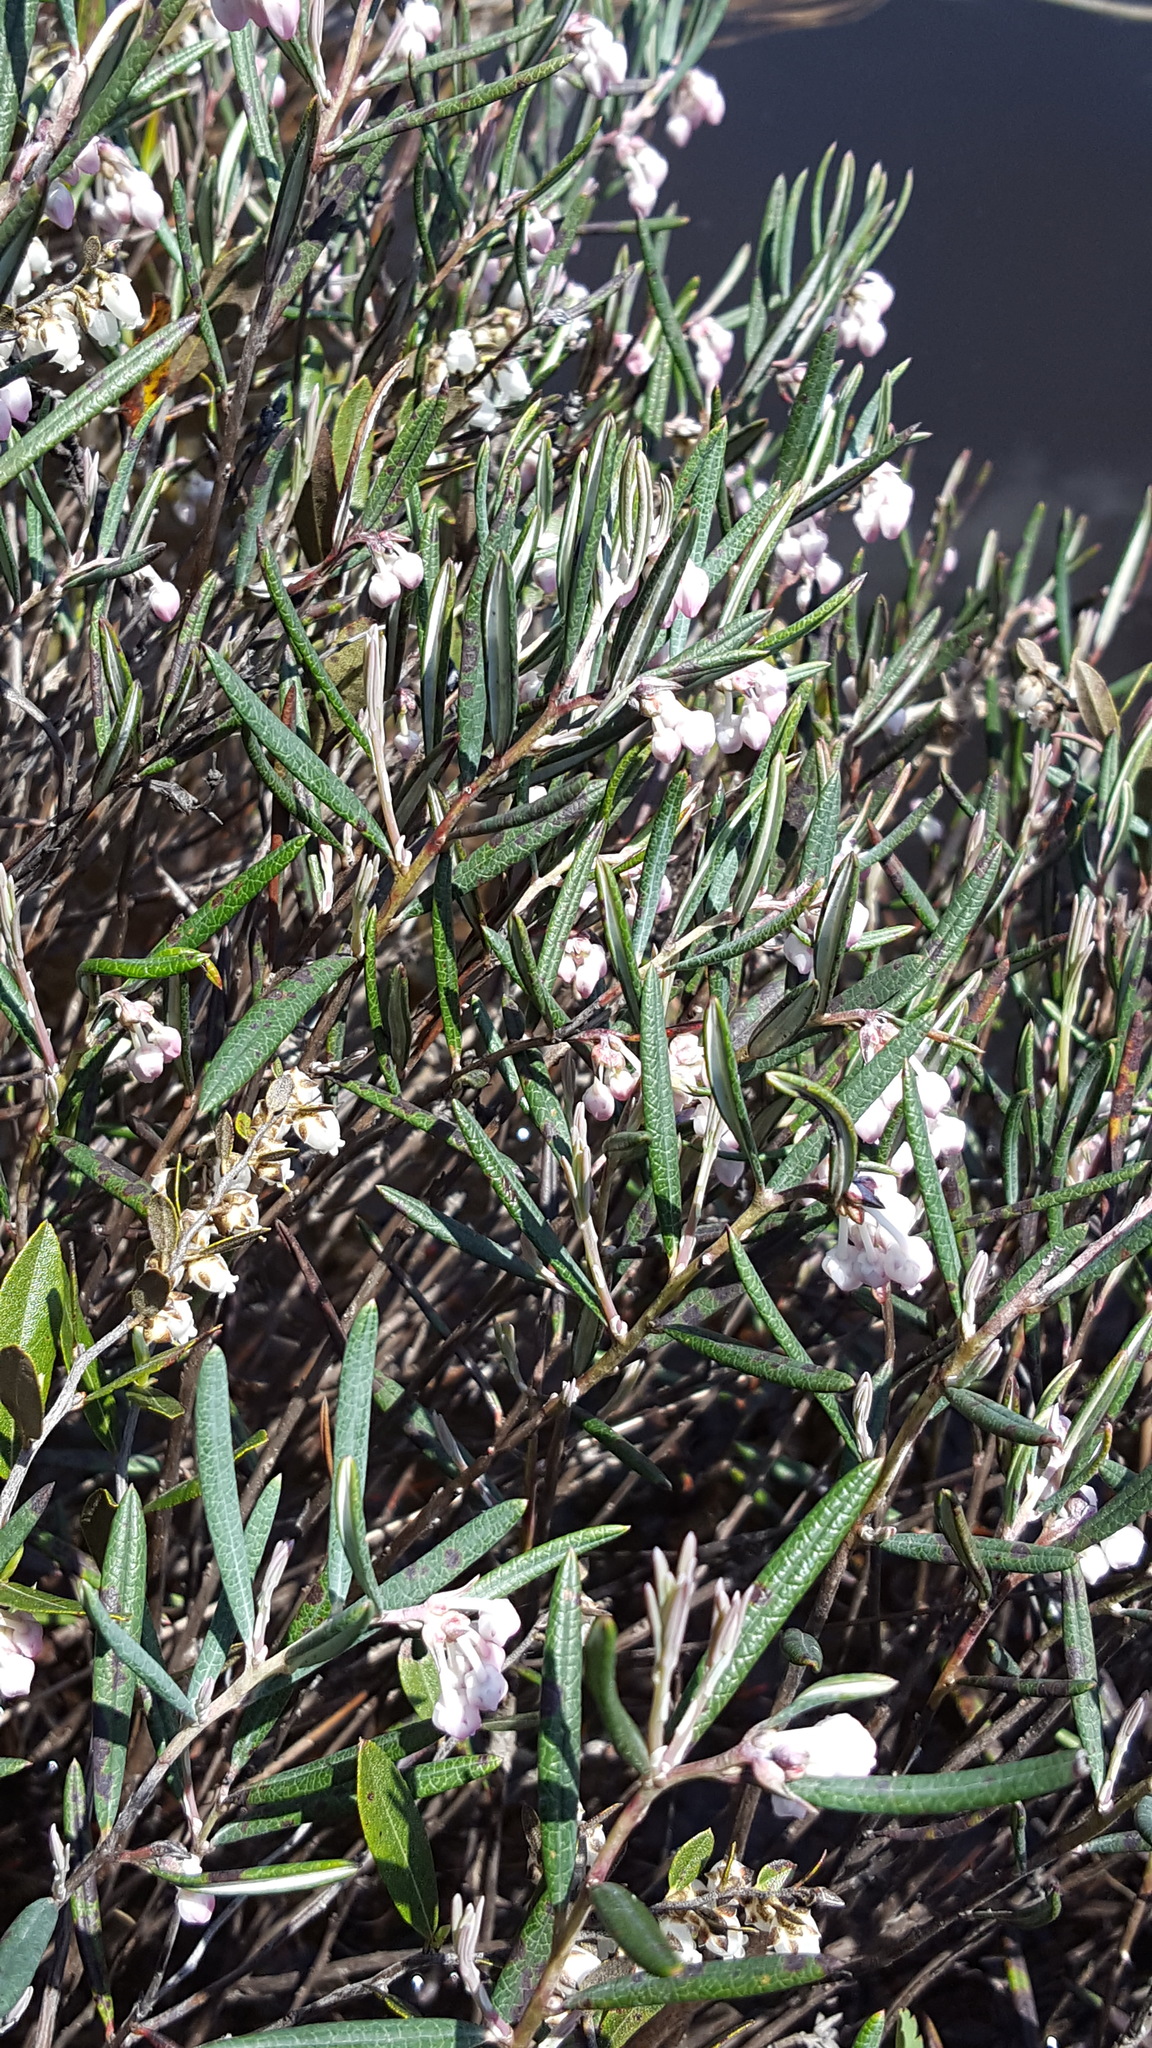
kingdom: Plantae
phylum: Tracheophyta
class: Magnoliopsida
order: Ericales
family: Ericaceae
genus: Andromeda
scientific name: Andromeda polifolia
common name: Bog-rosemary
